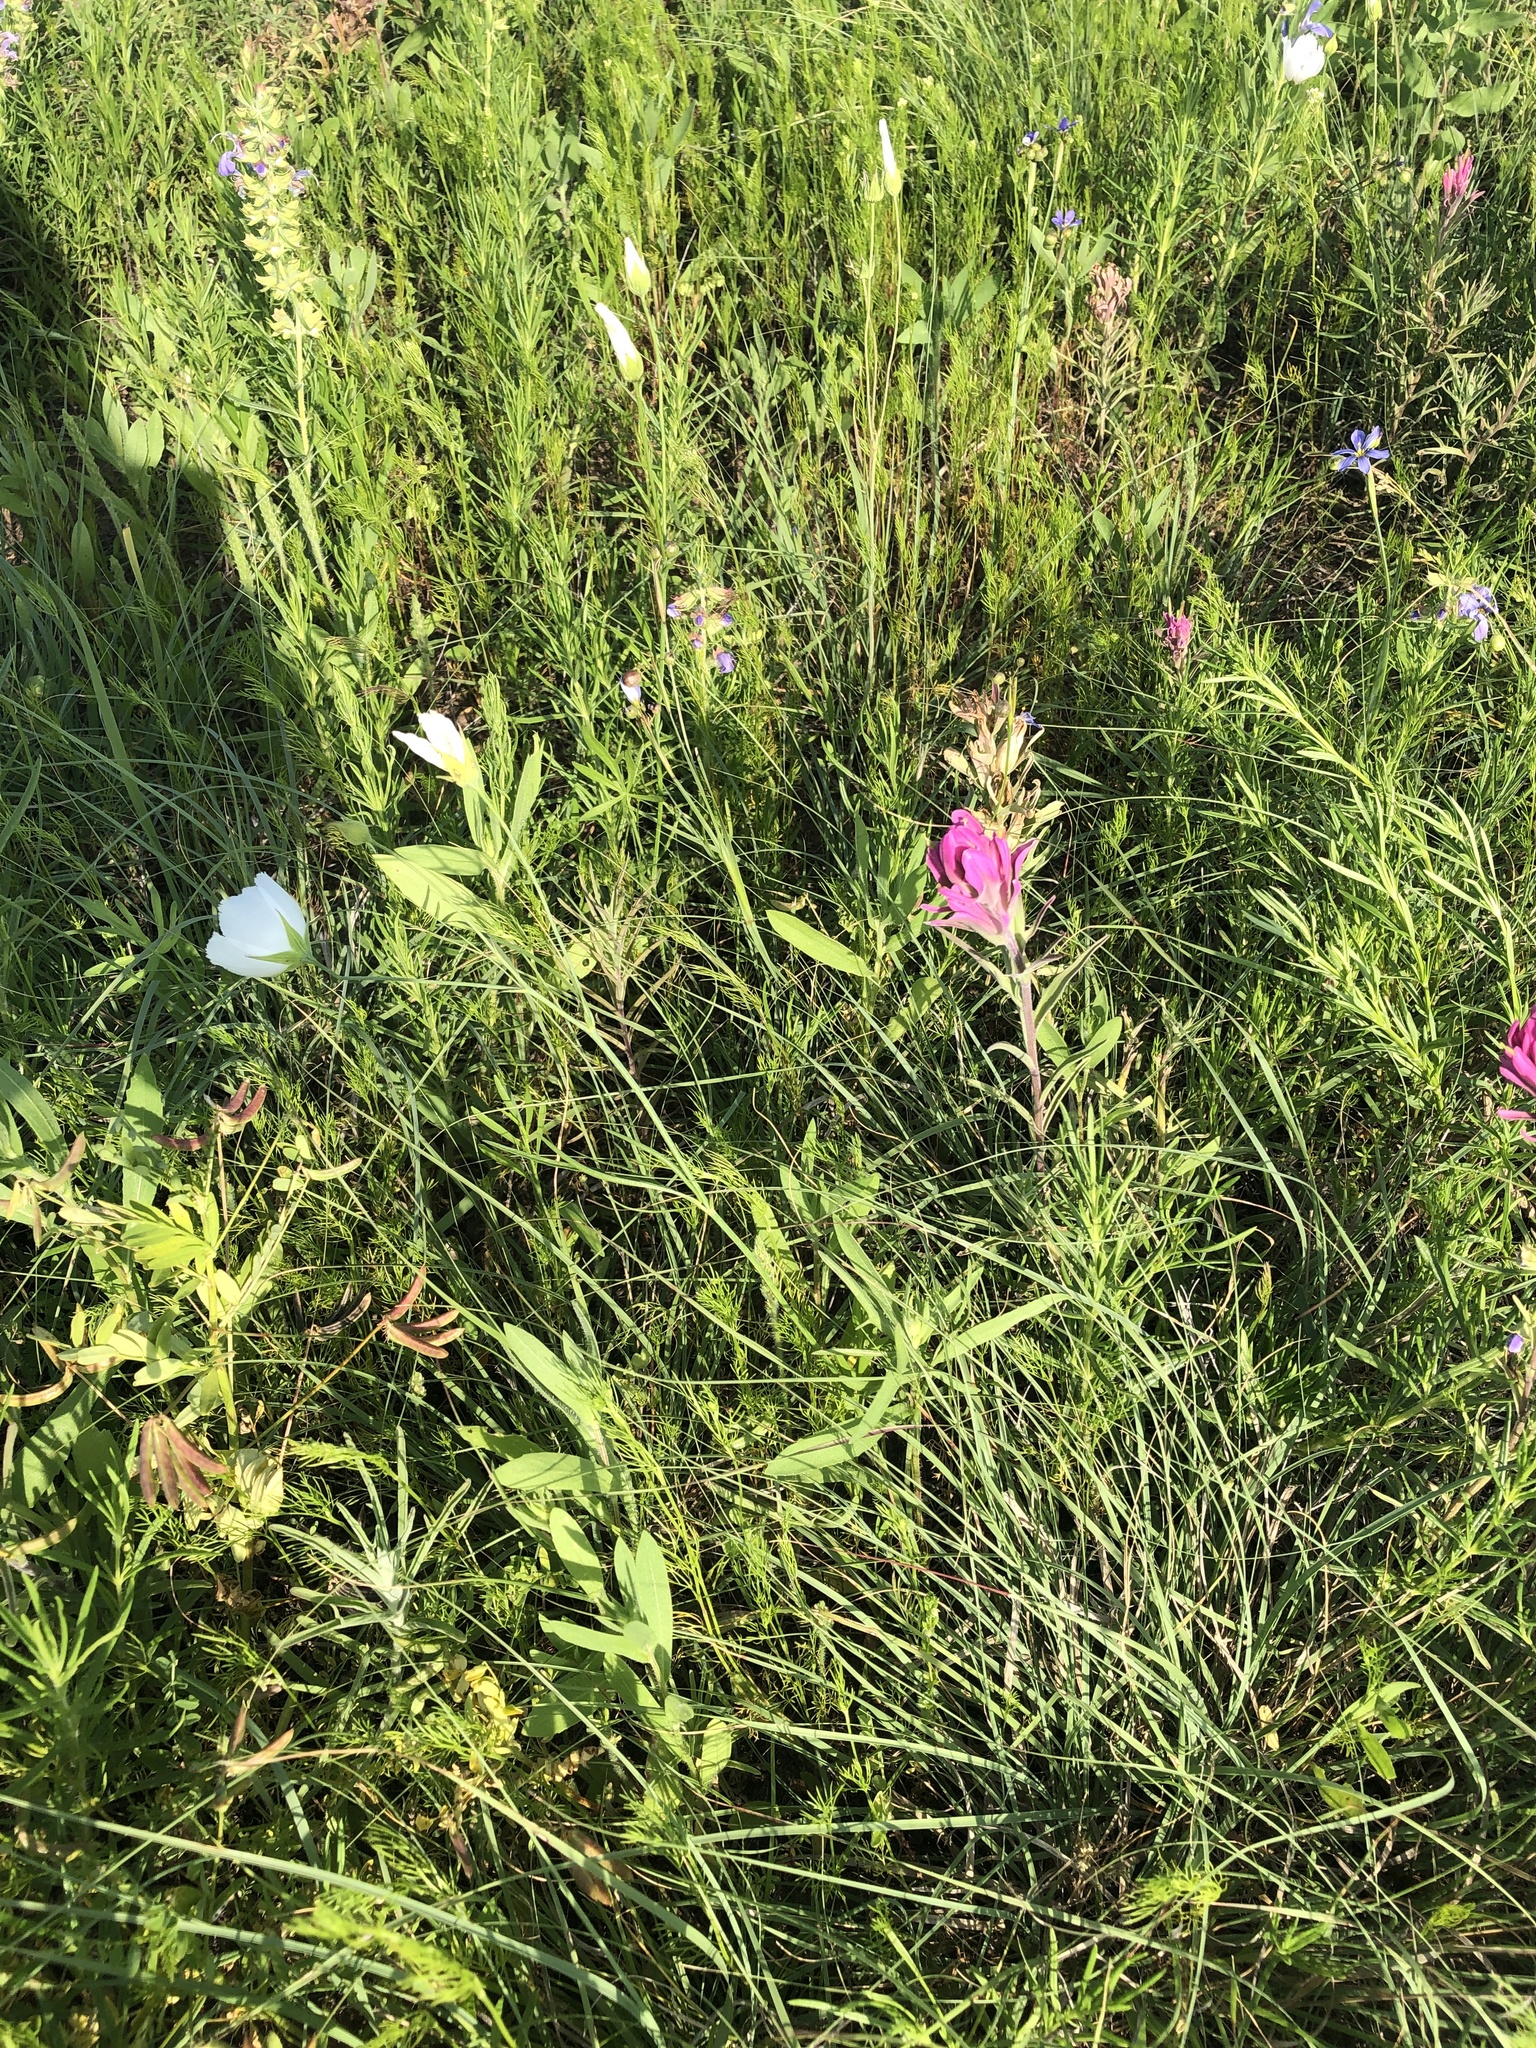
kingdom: Plantae
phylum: Tracheophyta
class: Magnoliopsida
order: Malvales
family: Malvaceae
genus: Callirhoe
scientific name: Callirhoe pedata
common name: Finger poppy-mallow
